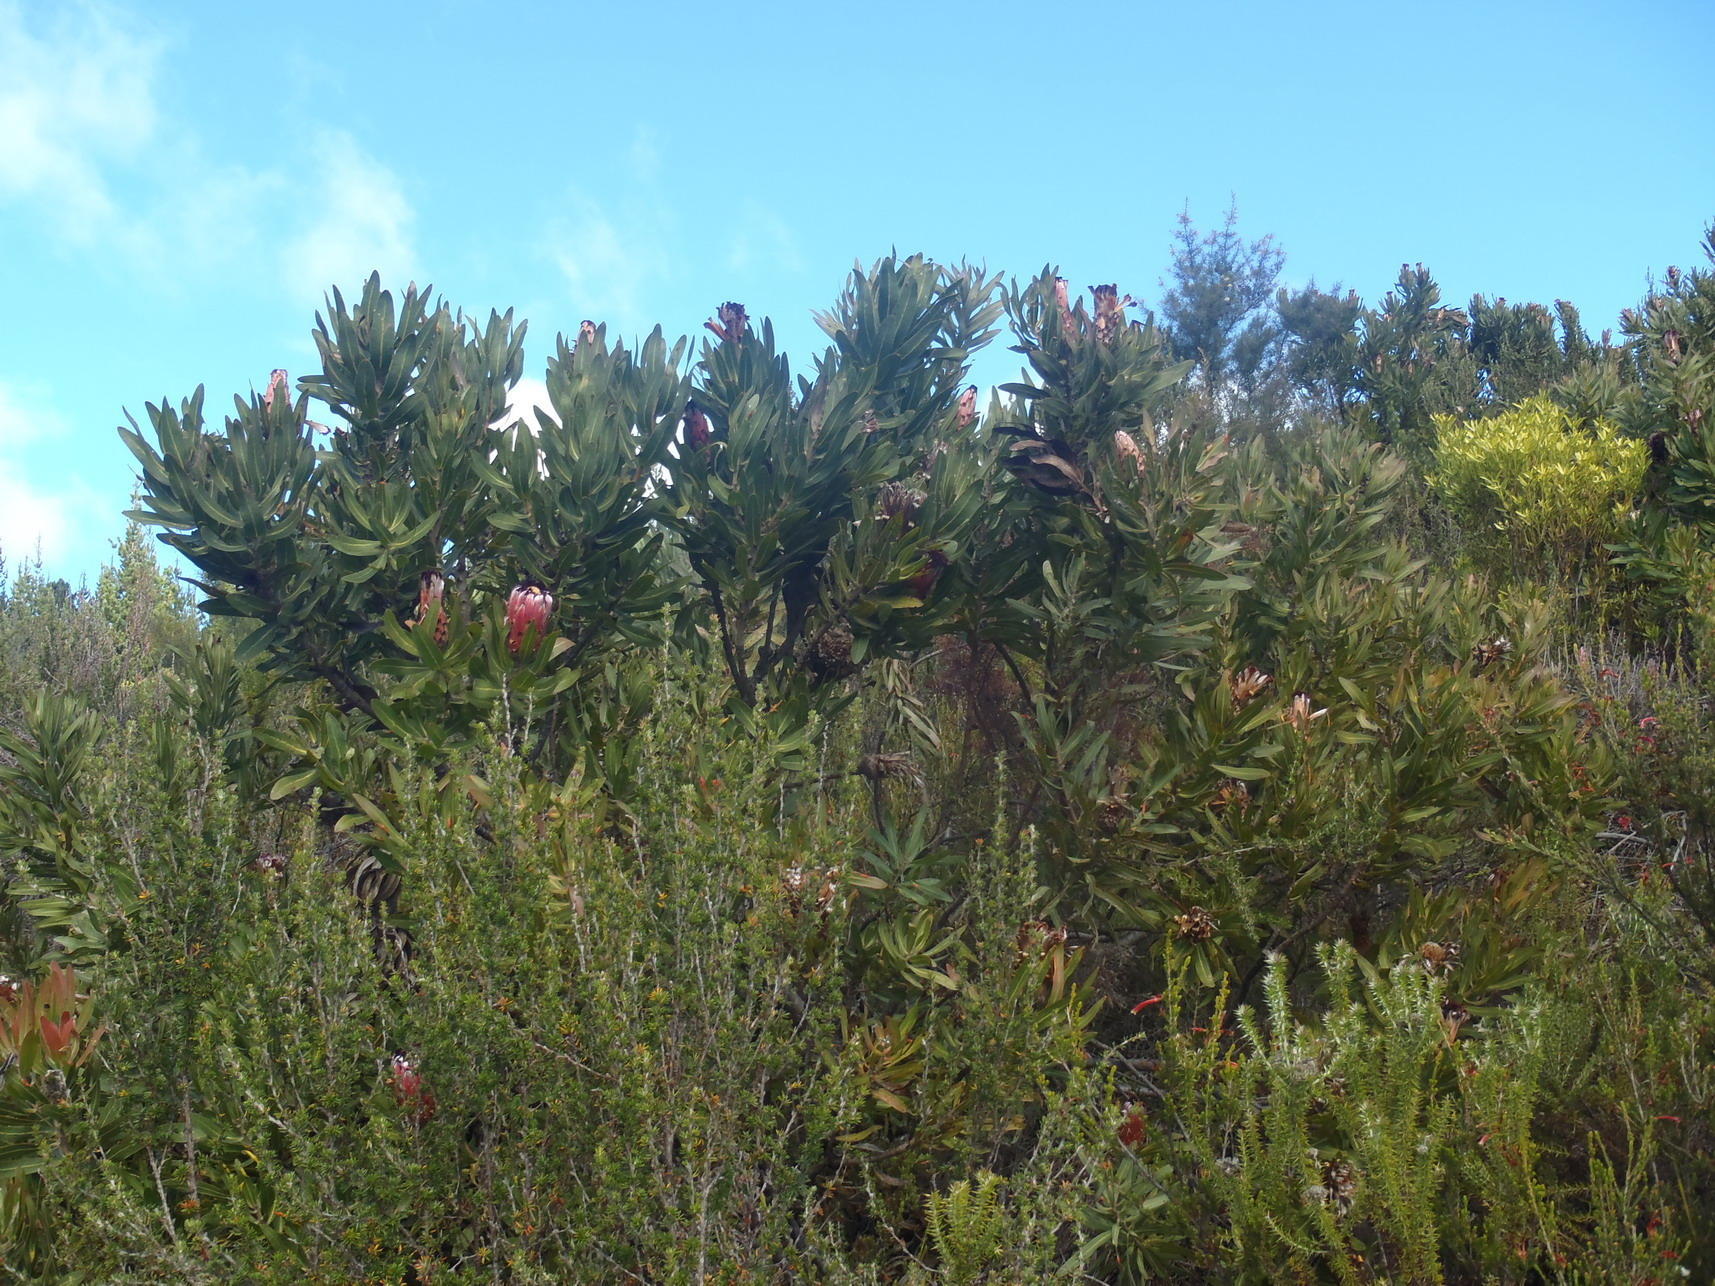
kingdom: Plantae
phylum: Tracheophyta
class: Magnoliopsida
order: Proteales
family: Proteaceae
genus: Protea
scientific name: Protea neriifolia
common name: Blue sugarbush
